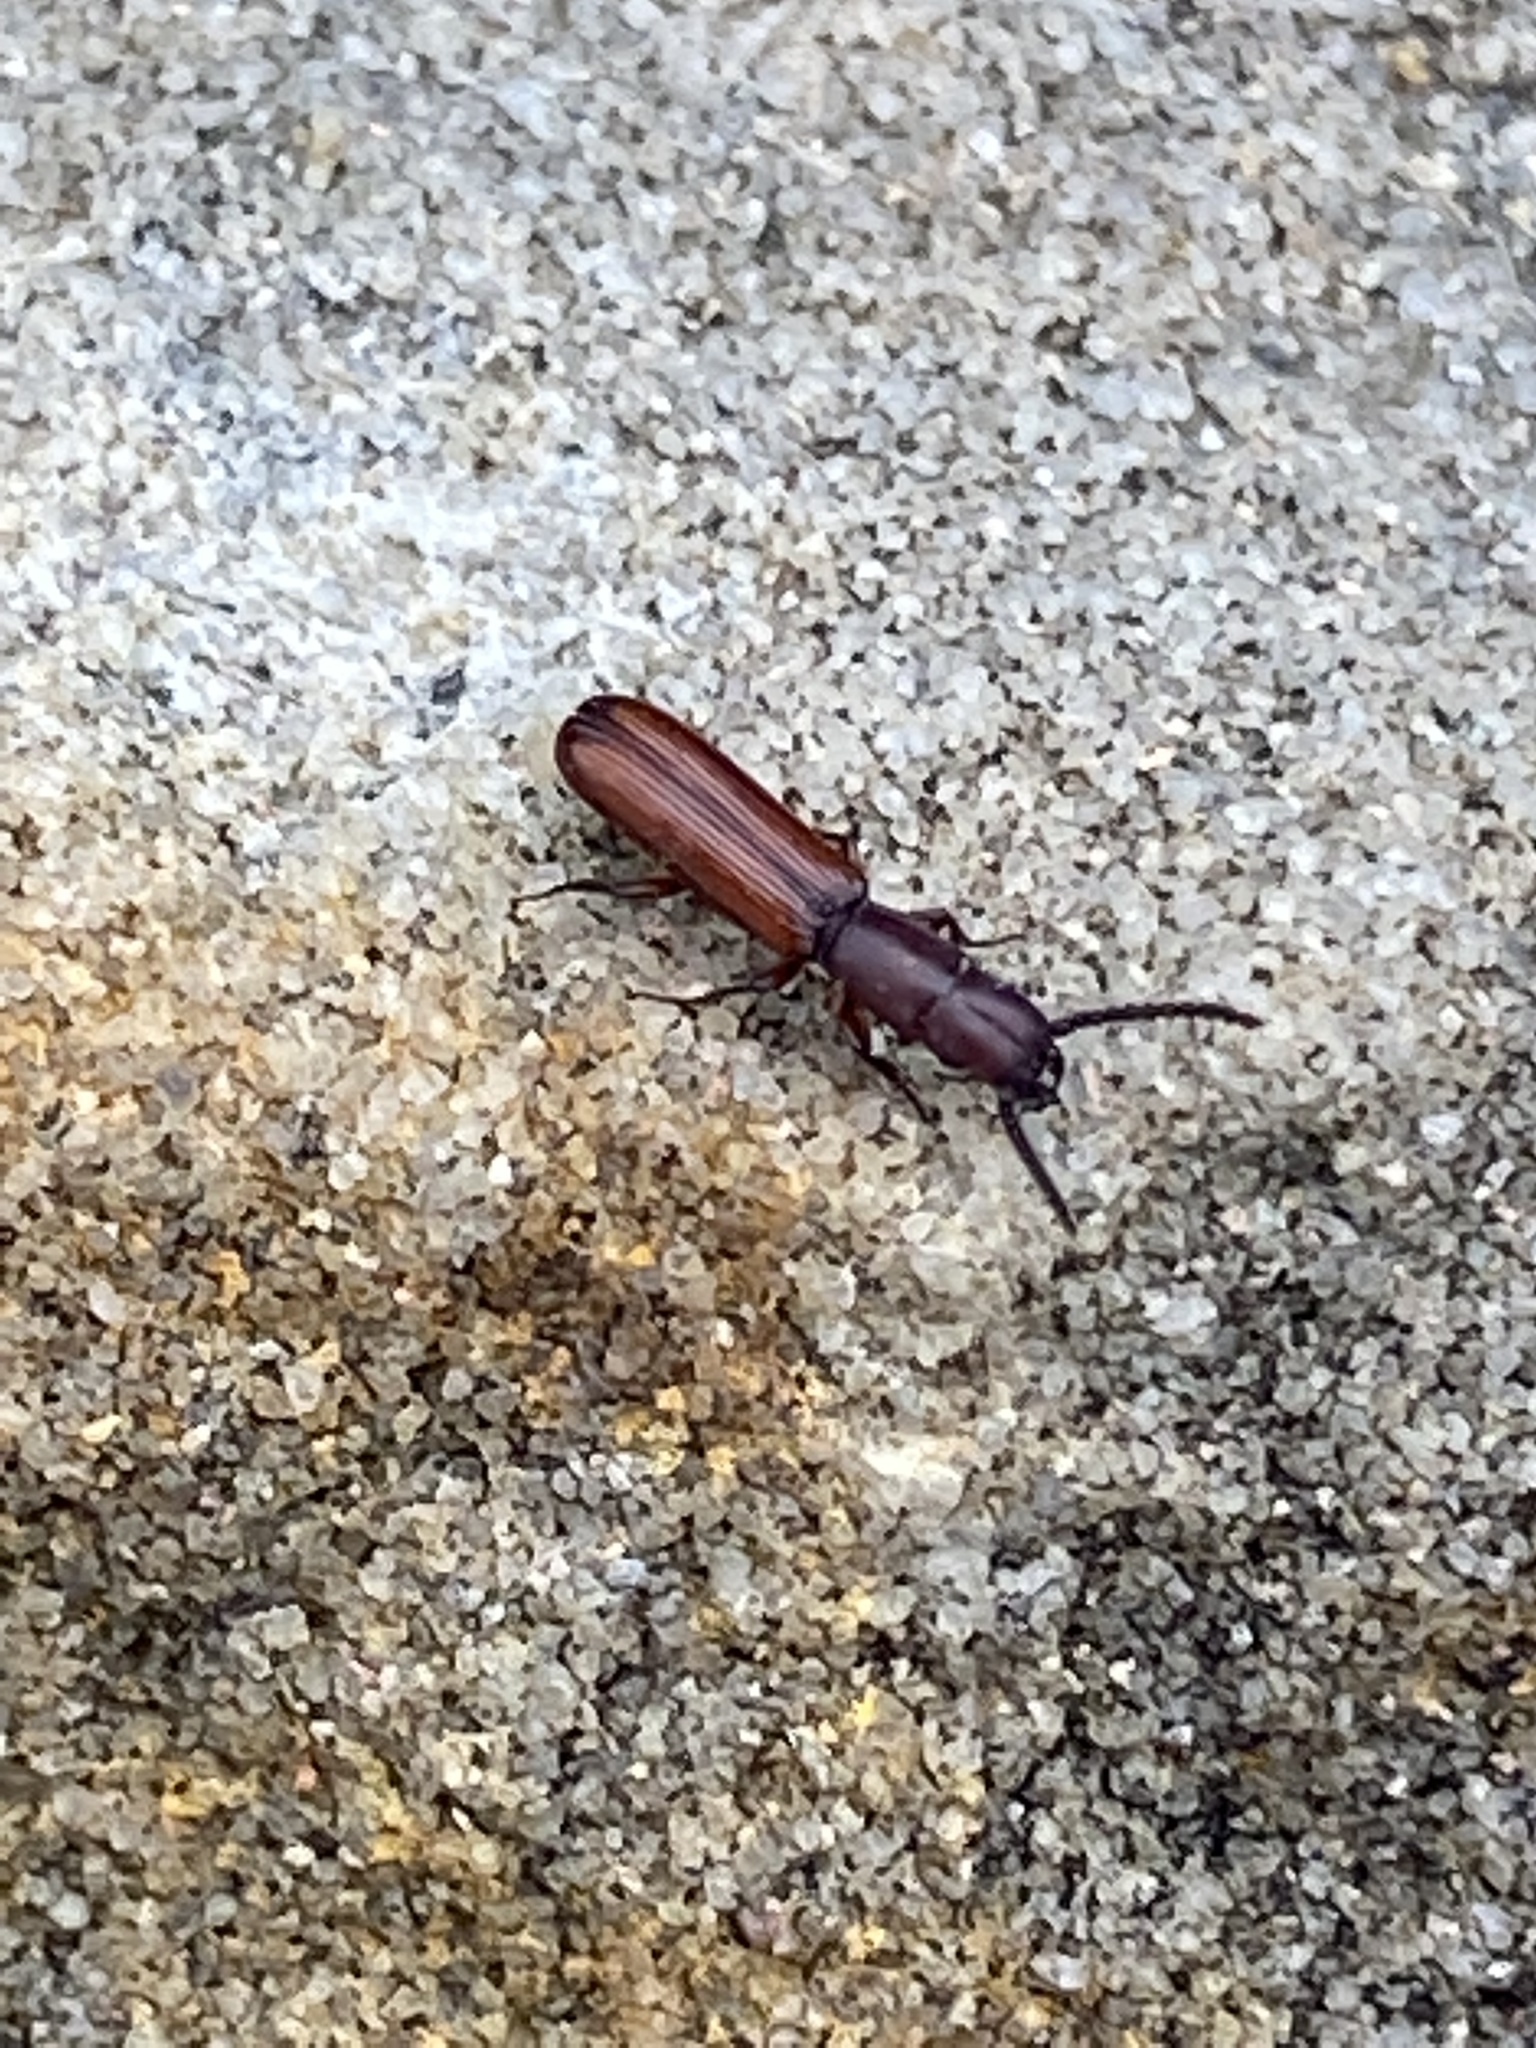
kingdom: Animalia
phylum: Arthropoda
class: Insecta
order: Coleoptera
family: Passandridae
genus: Taphroscelidia
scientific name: Taphroscelidia linearis
